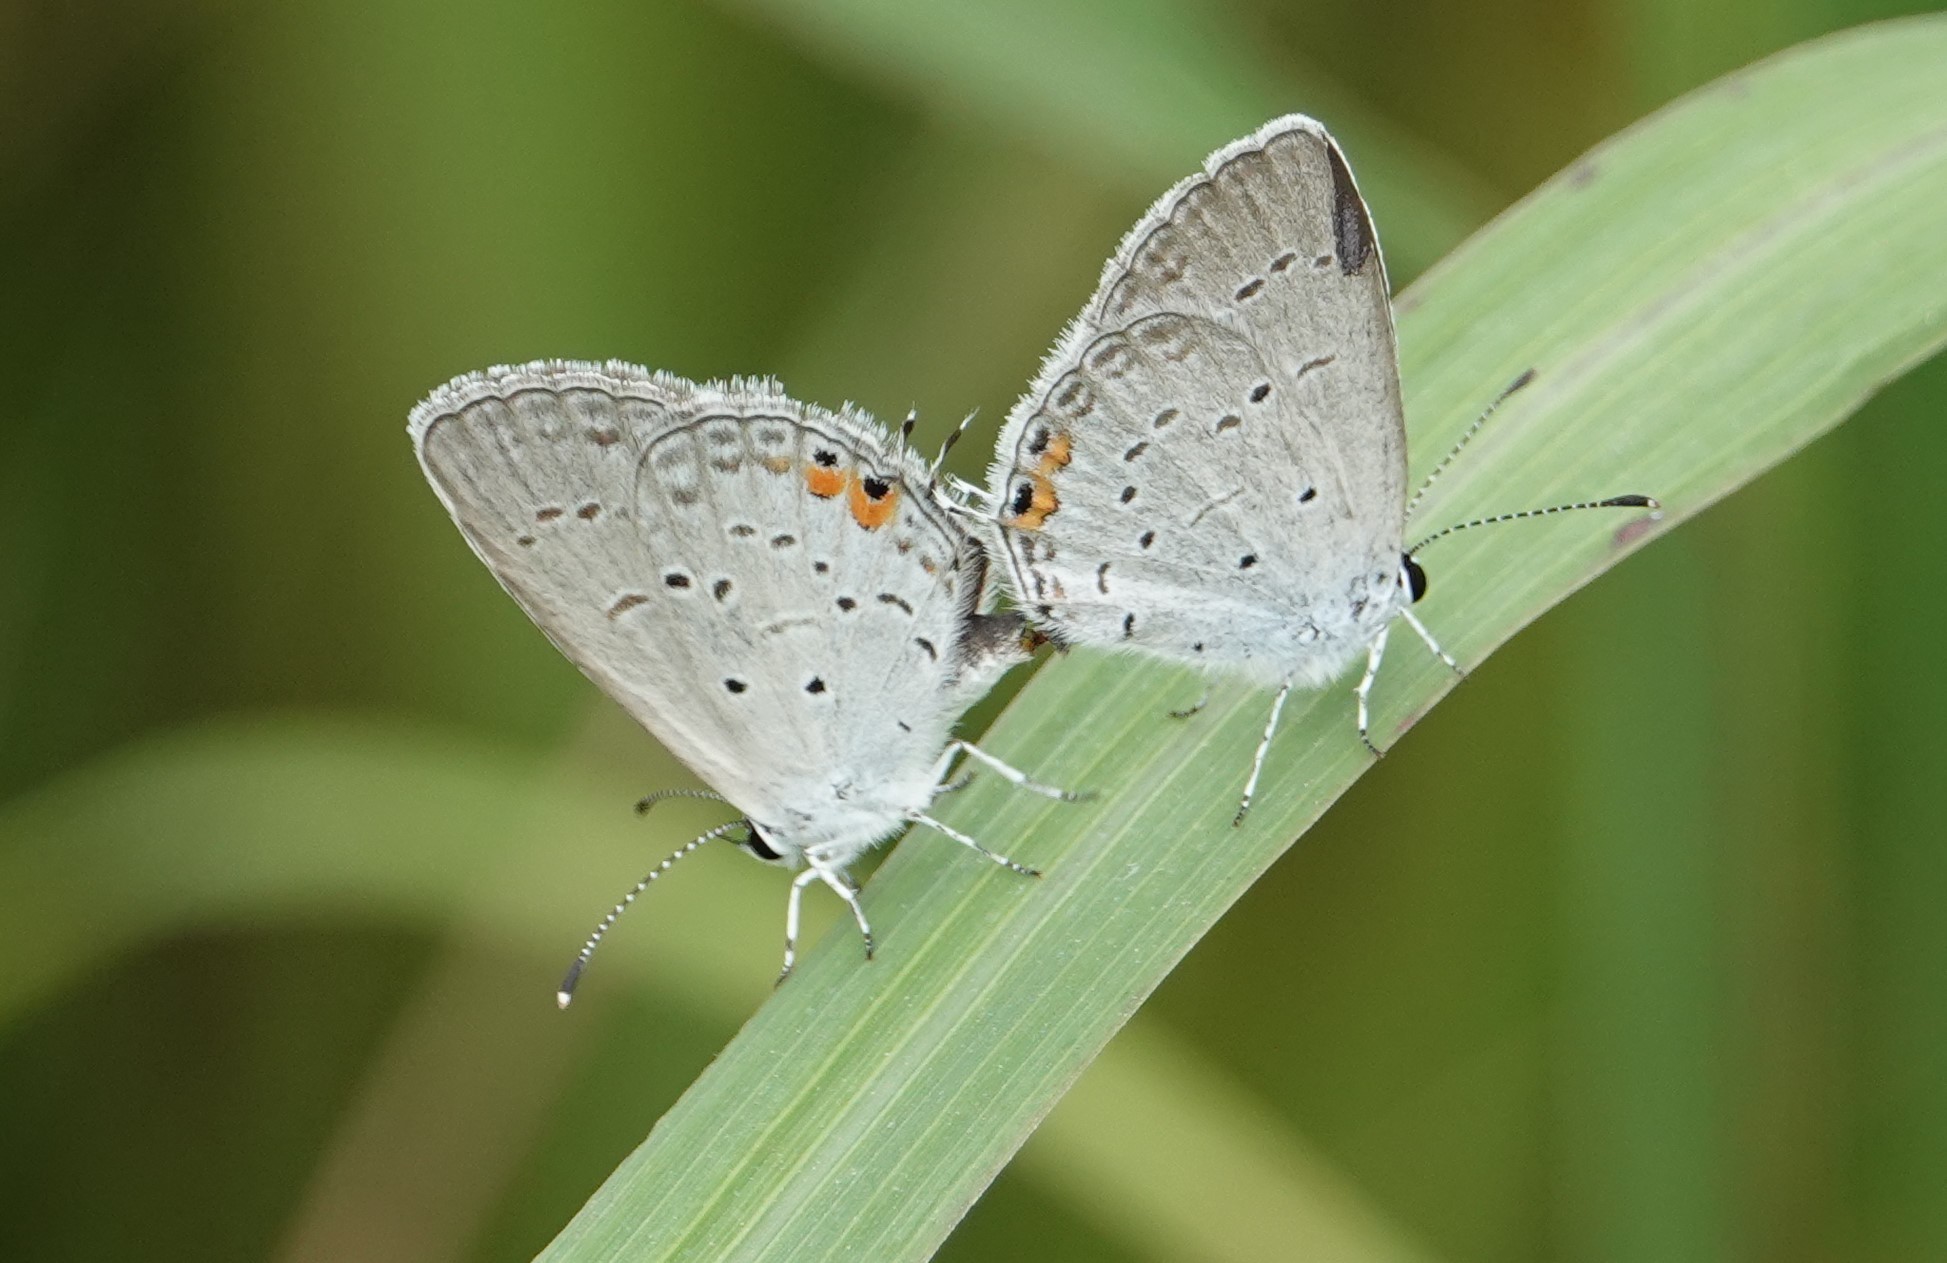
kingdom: Animalia
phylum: Arthropoda
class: Insecta
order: Lepidoptera
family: Lycaenidae
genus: Elkalyce
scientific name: Elkalyce comyntas
